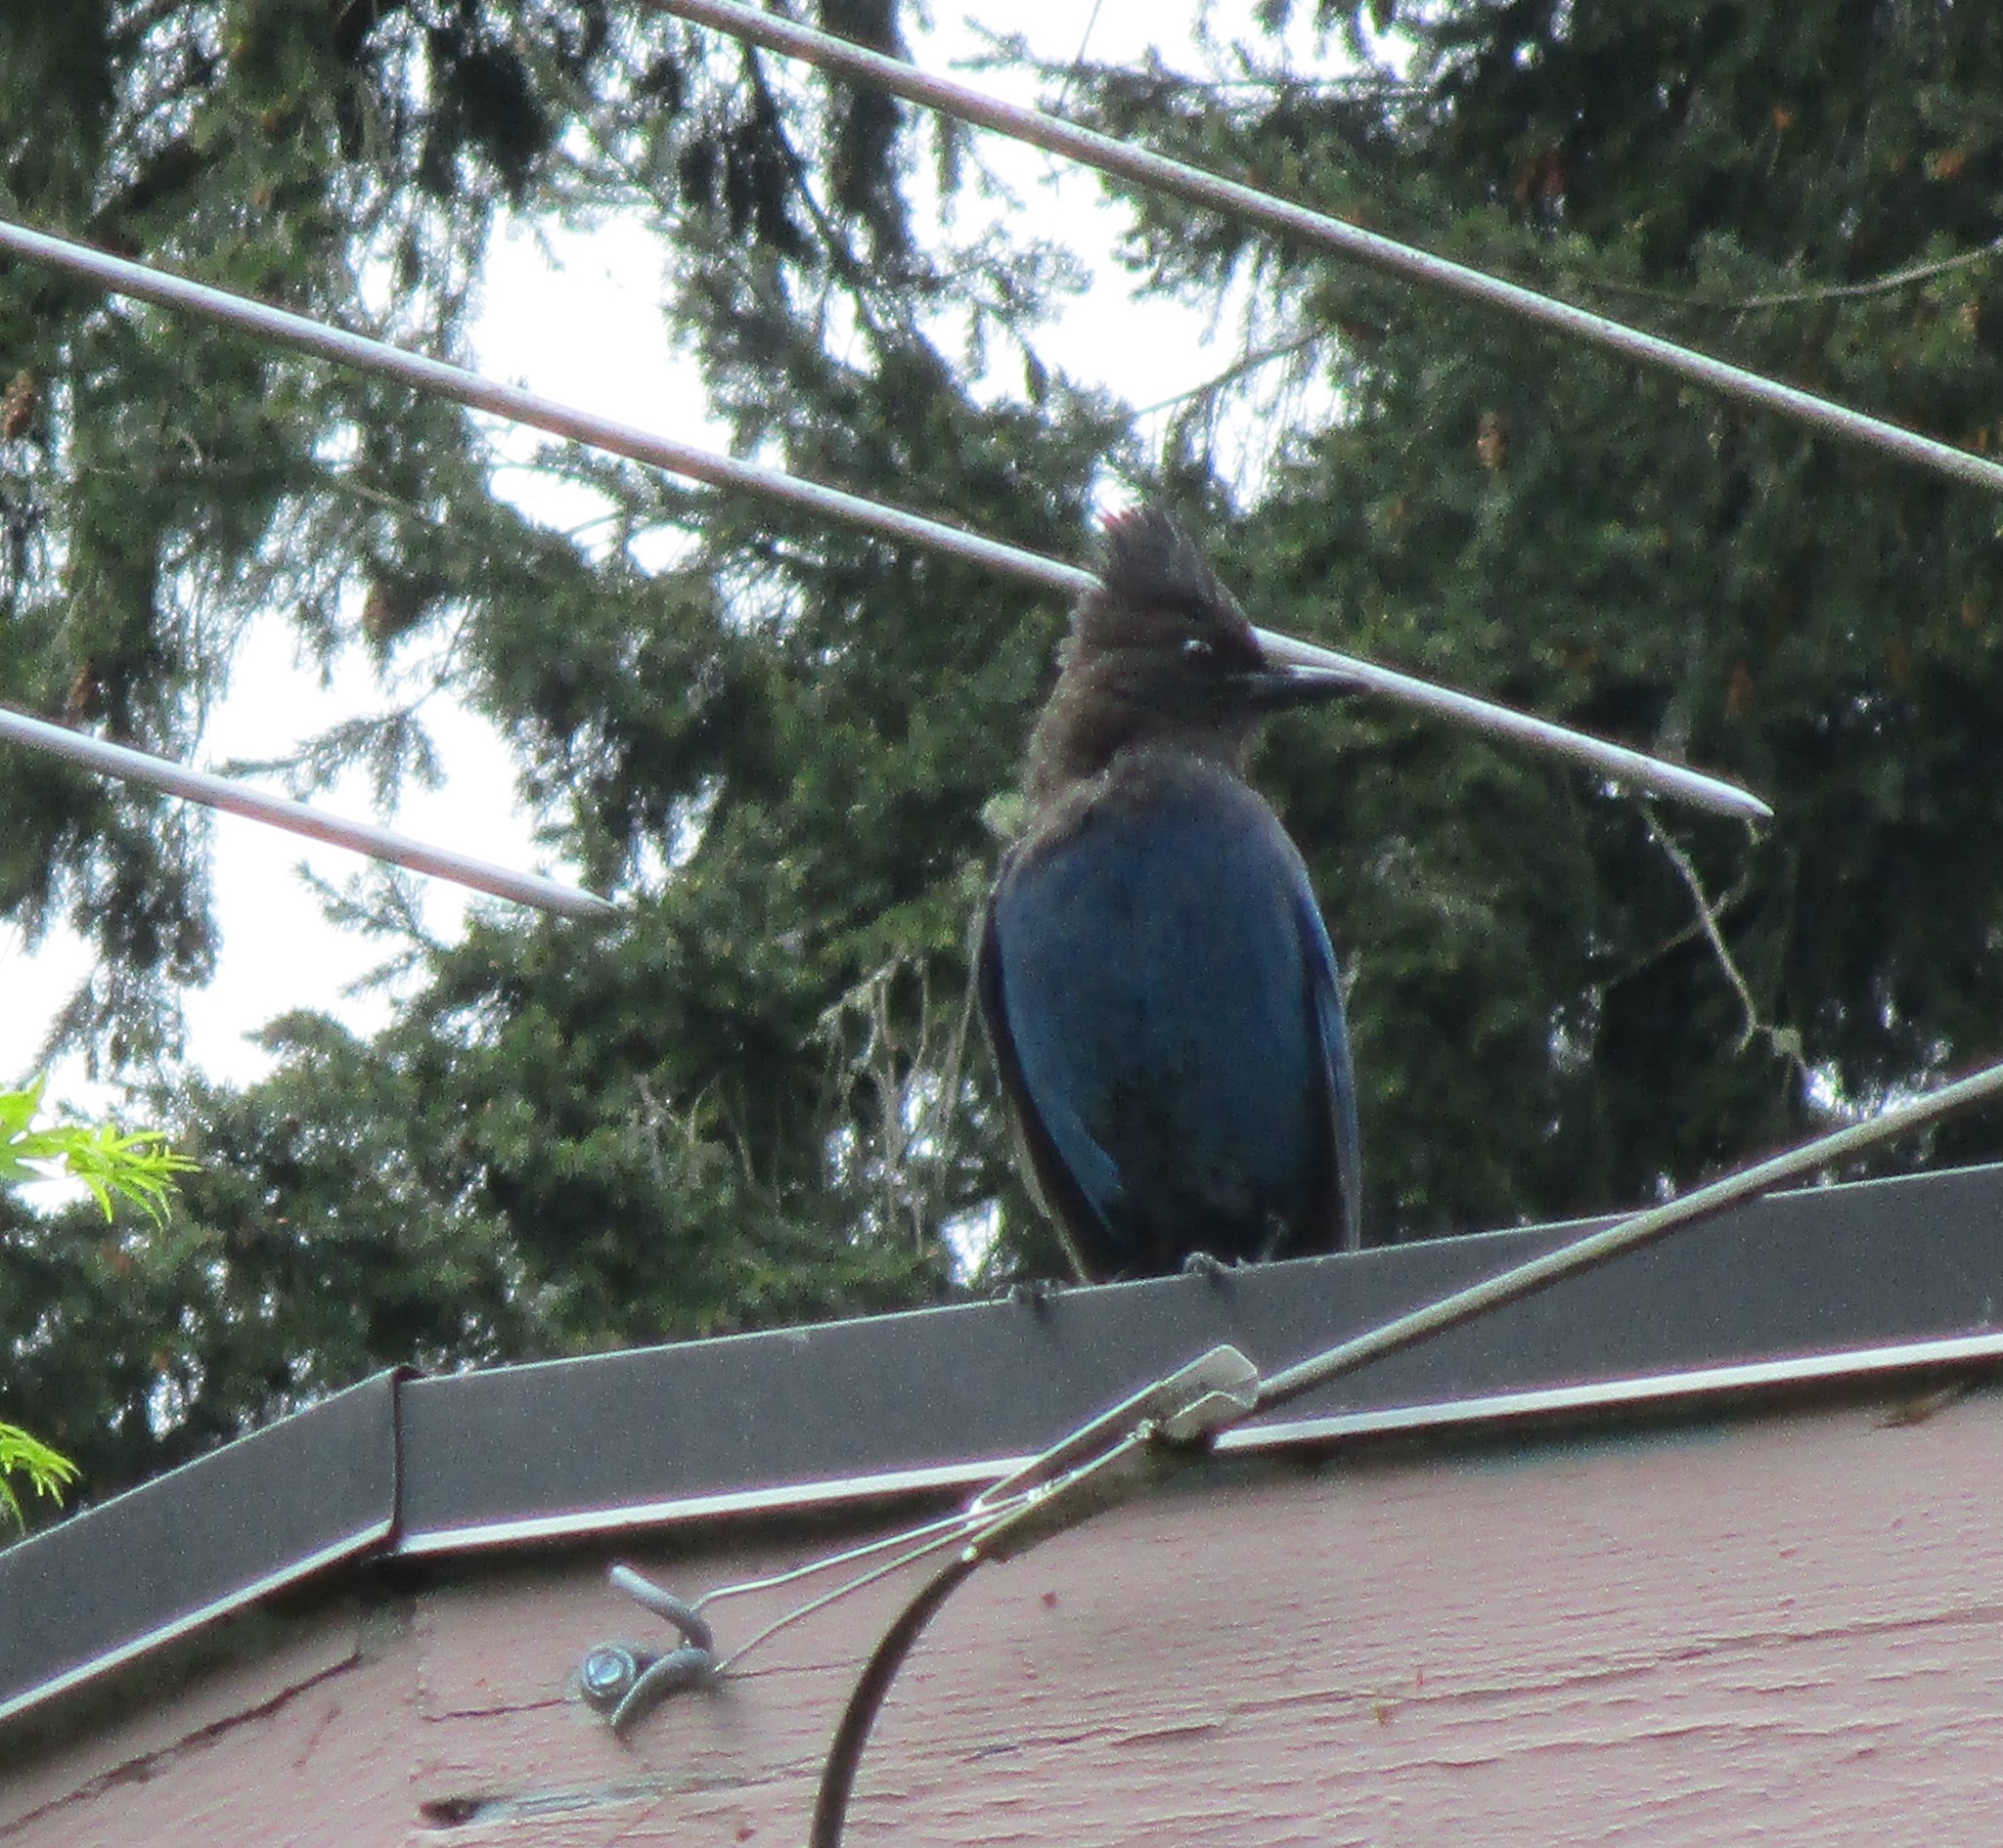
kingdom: Animalia
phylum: Chordata
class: Aves
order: Passeriformes
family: Corvidae
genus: Cyanocitta
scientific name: Cyanocitta stelleri
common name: Steller's jay
